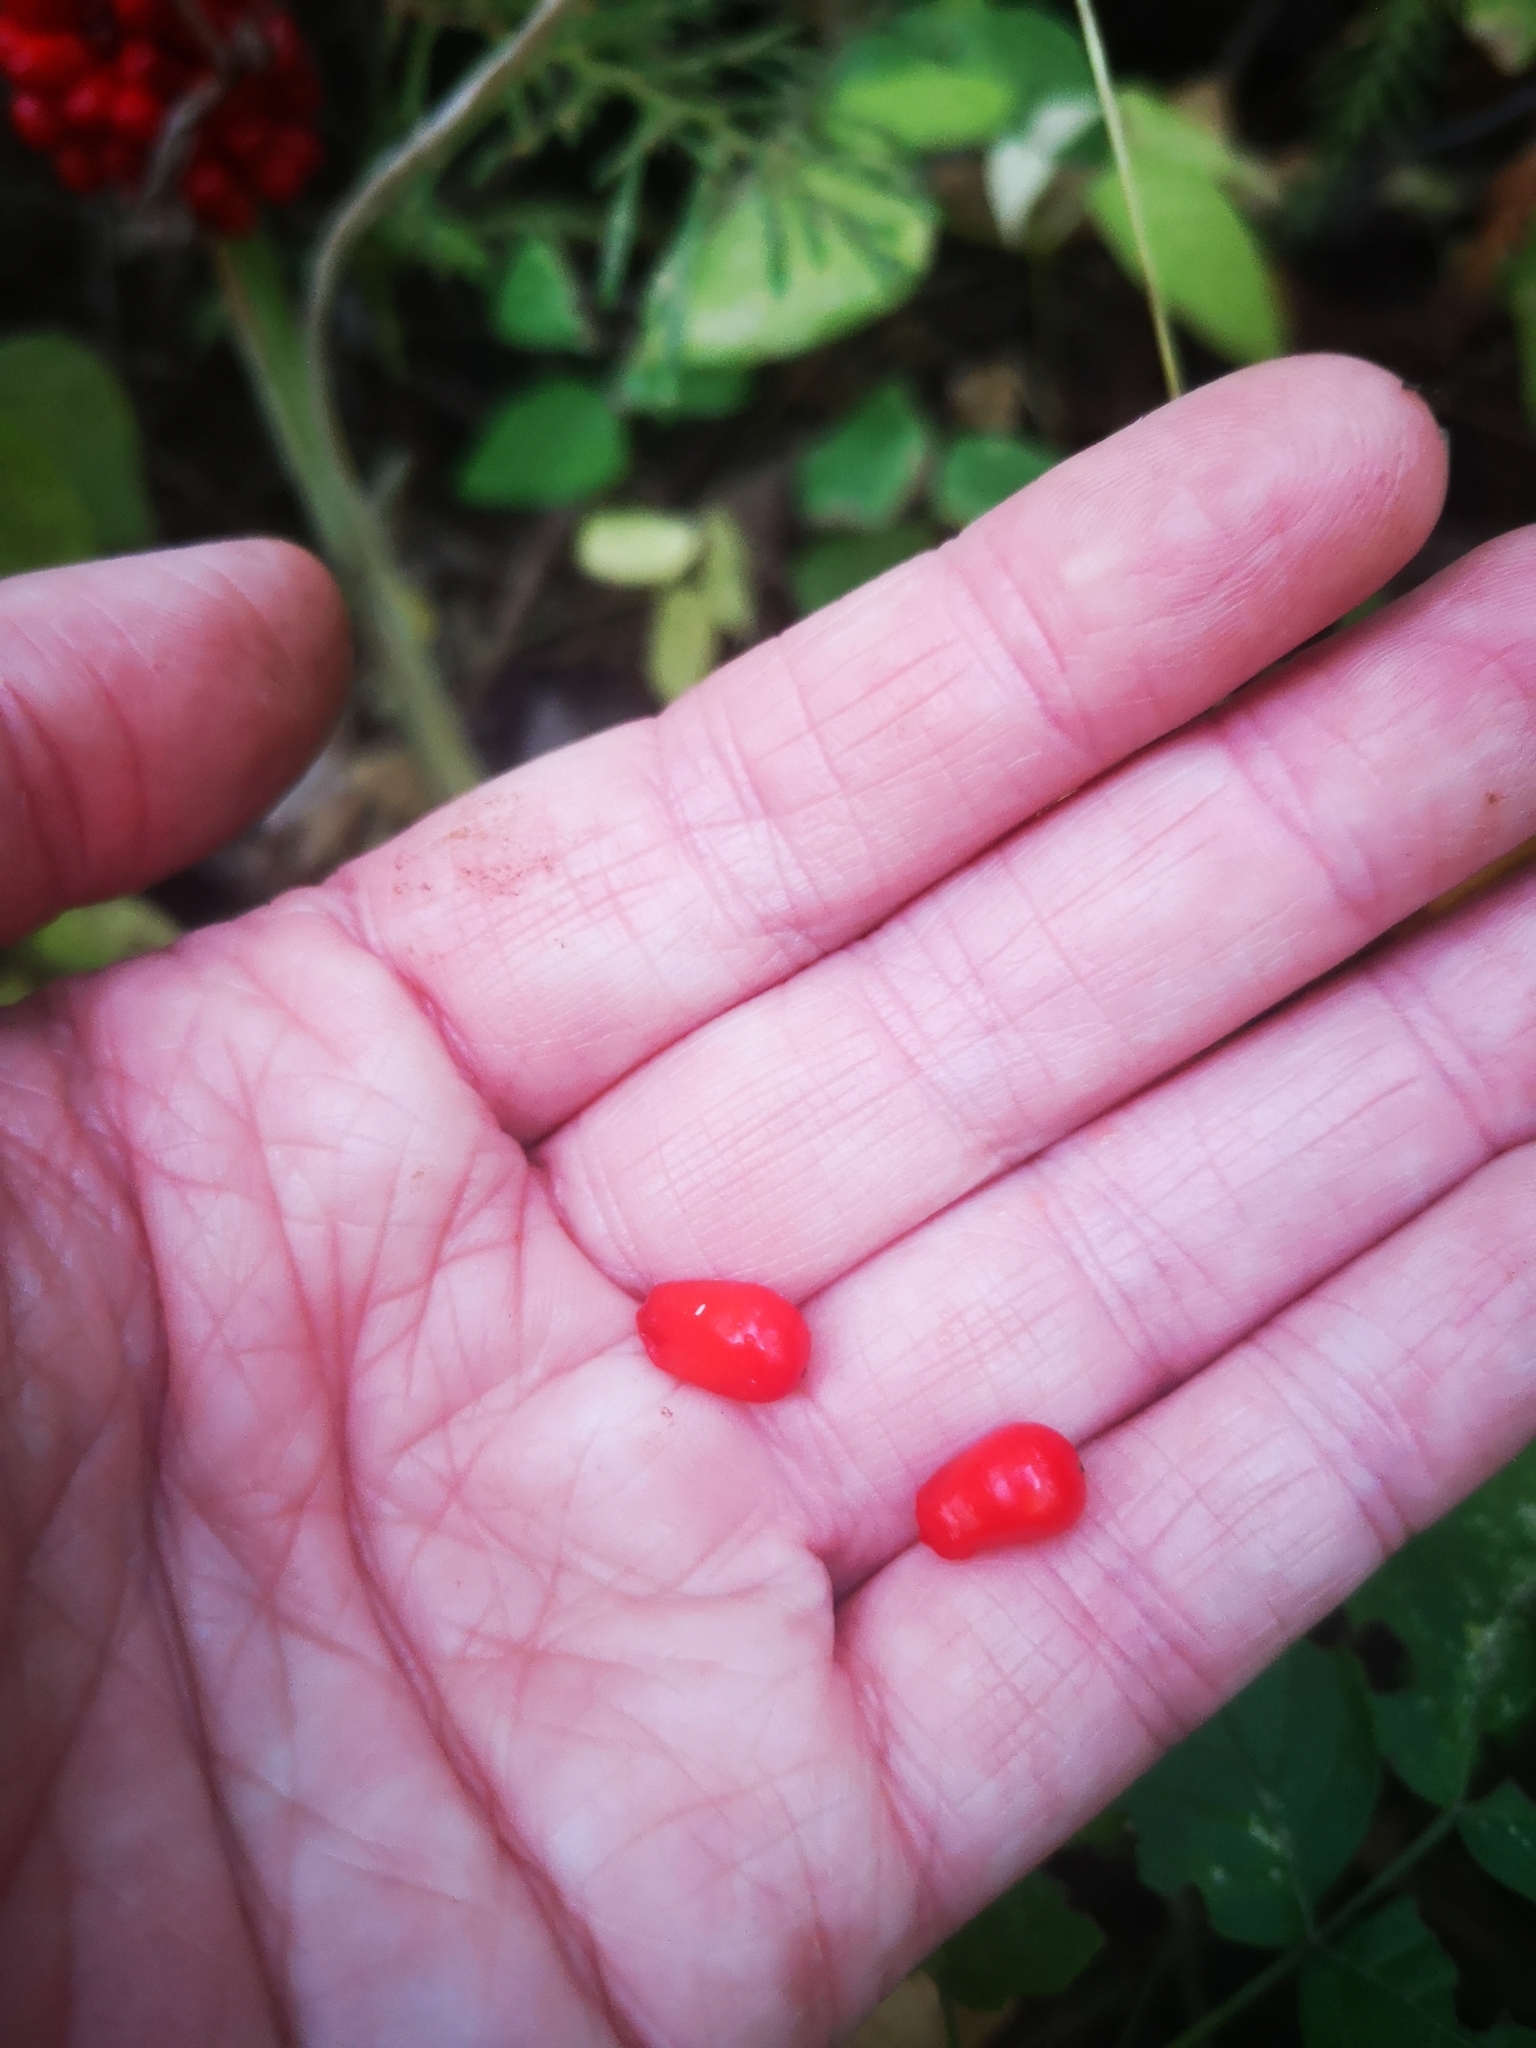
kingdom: Plantae
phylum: Tracheophyta
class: Liliopsida
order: Alismatales
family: Araceae
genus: Arisaema
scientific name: Arisaema triphyllum
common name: Jack-in-the-pulpit
